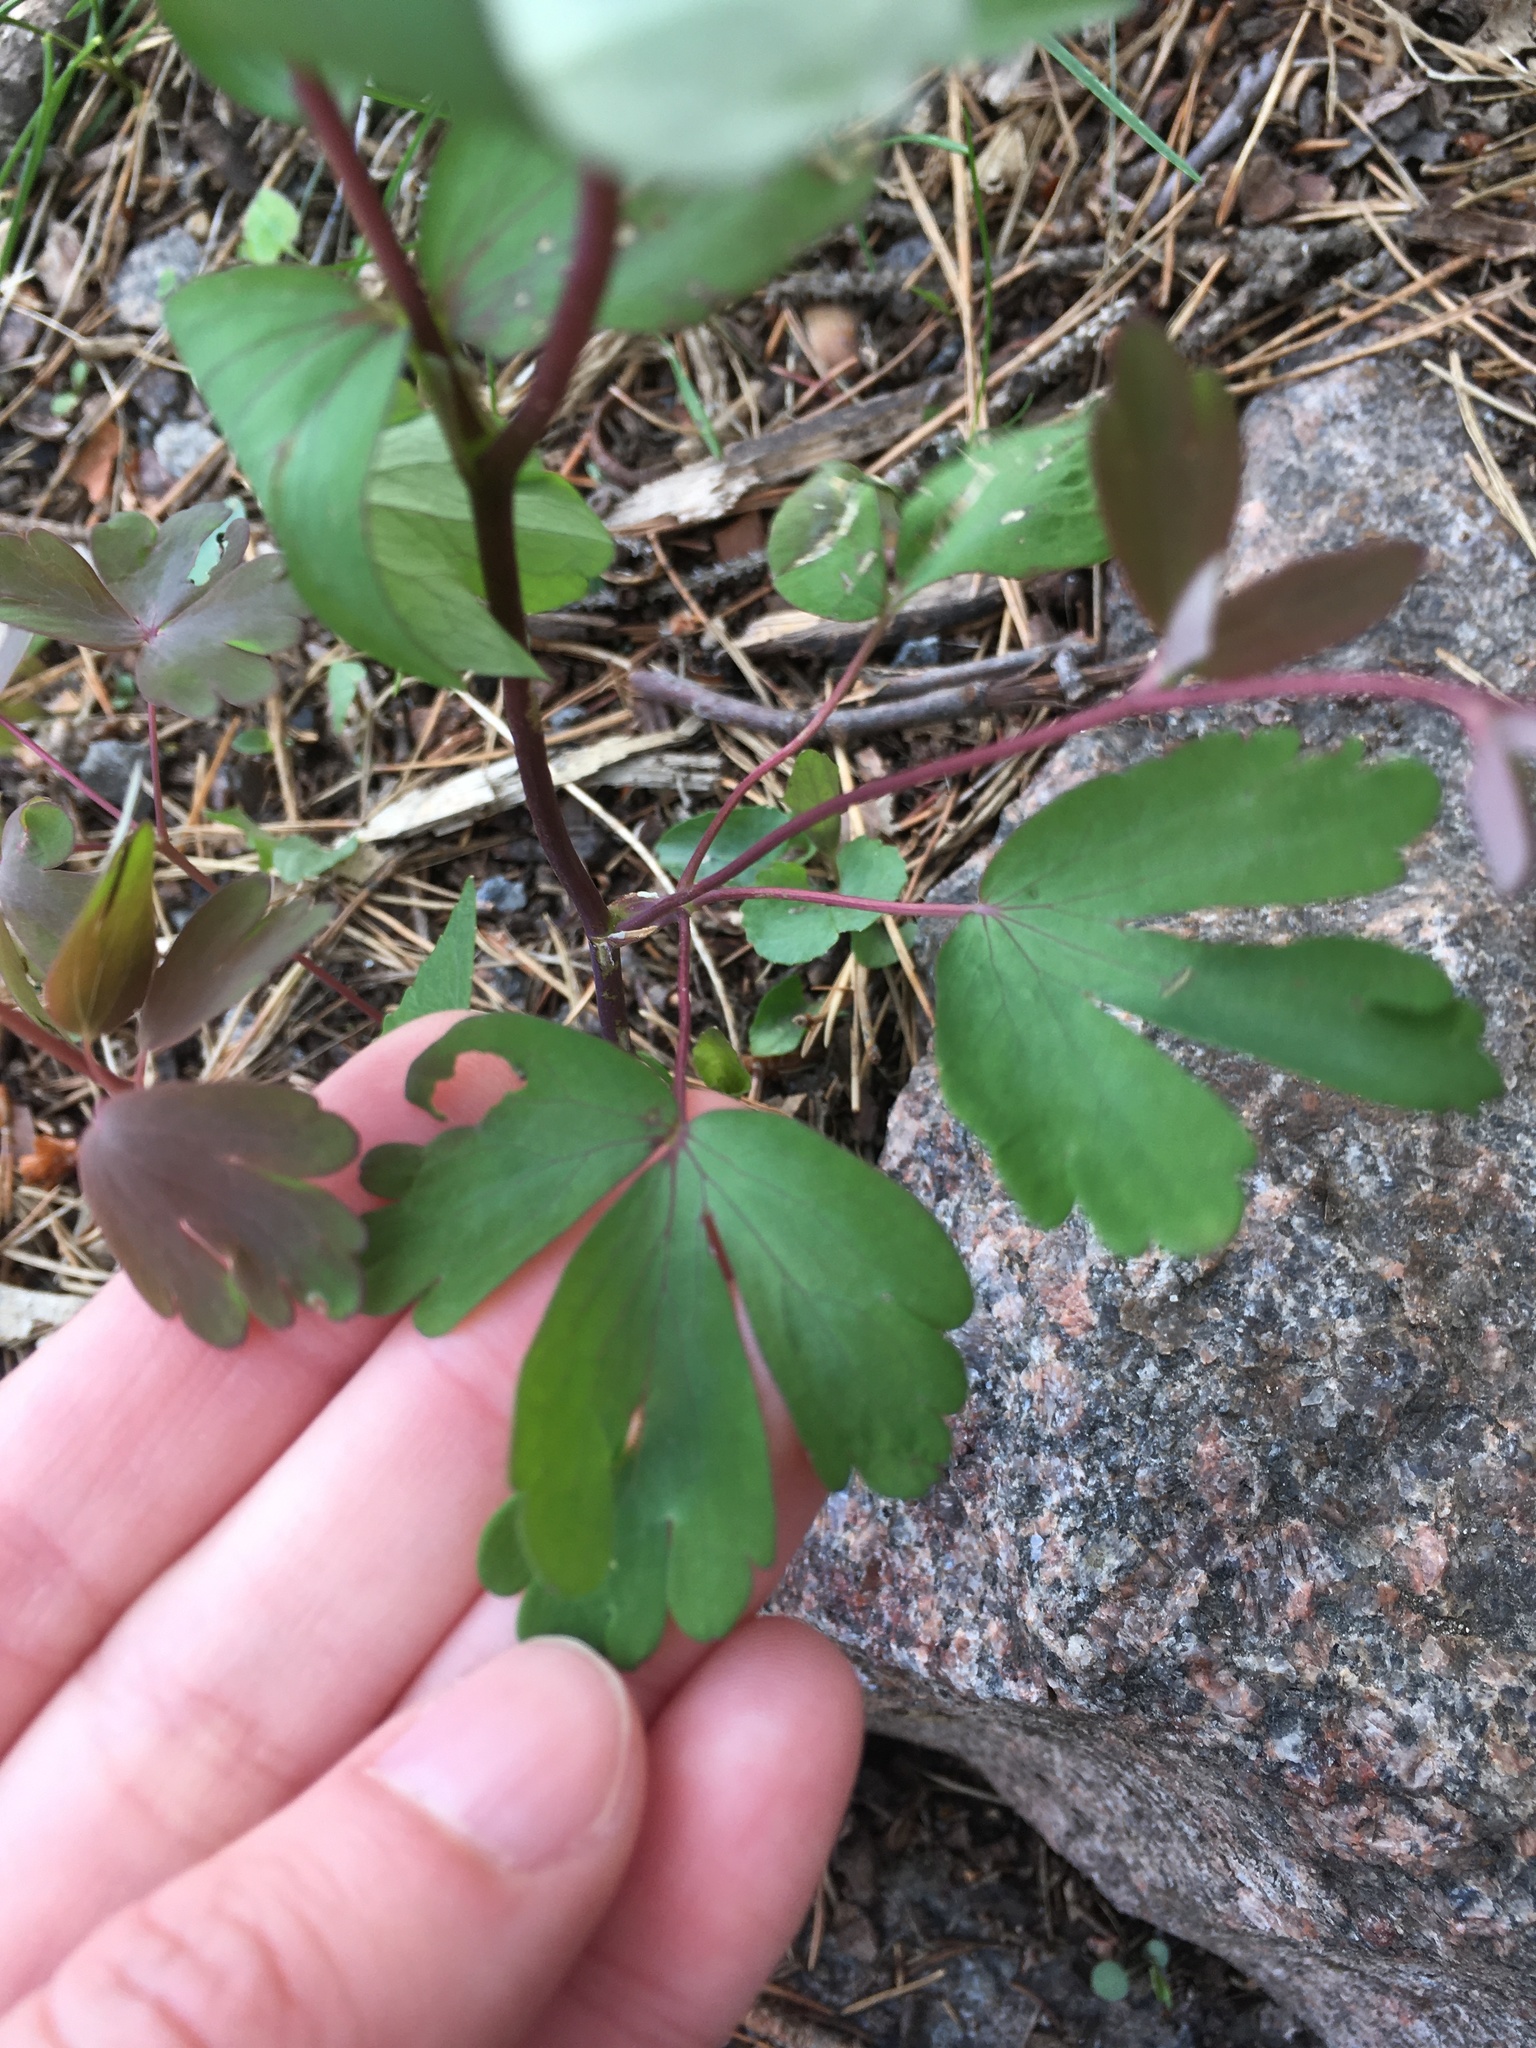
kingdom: Plantae
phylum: Tracheophyta
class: Magnoliopsida
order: Ranunculales
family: Ranunculaceae
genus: Aquilegia
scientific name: Aquilegia canadensis
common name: American columbine
